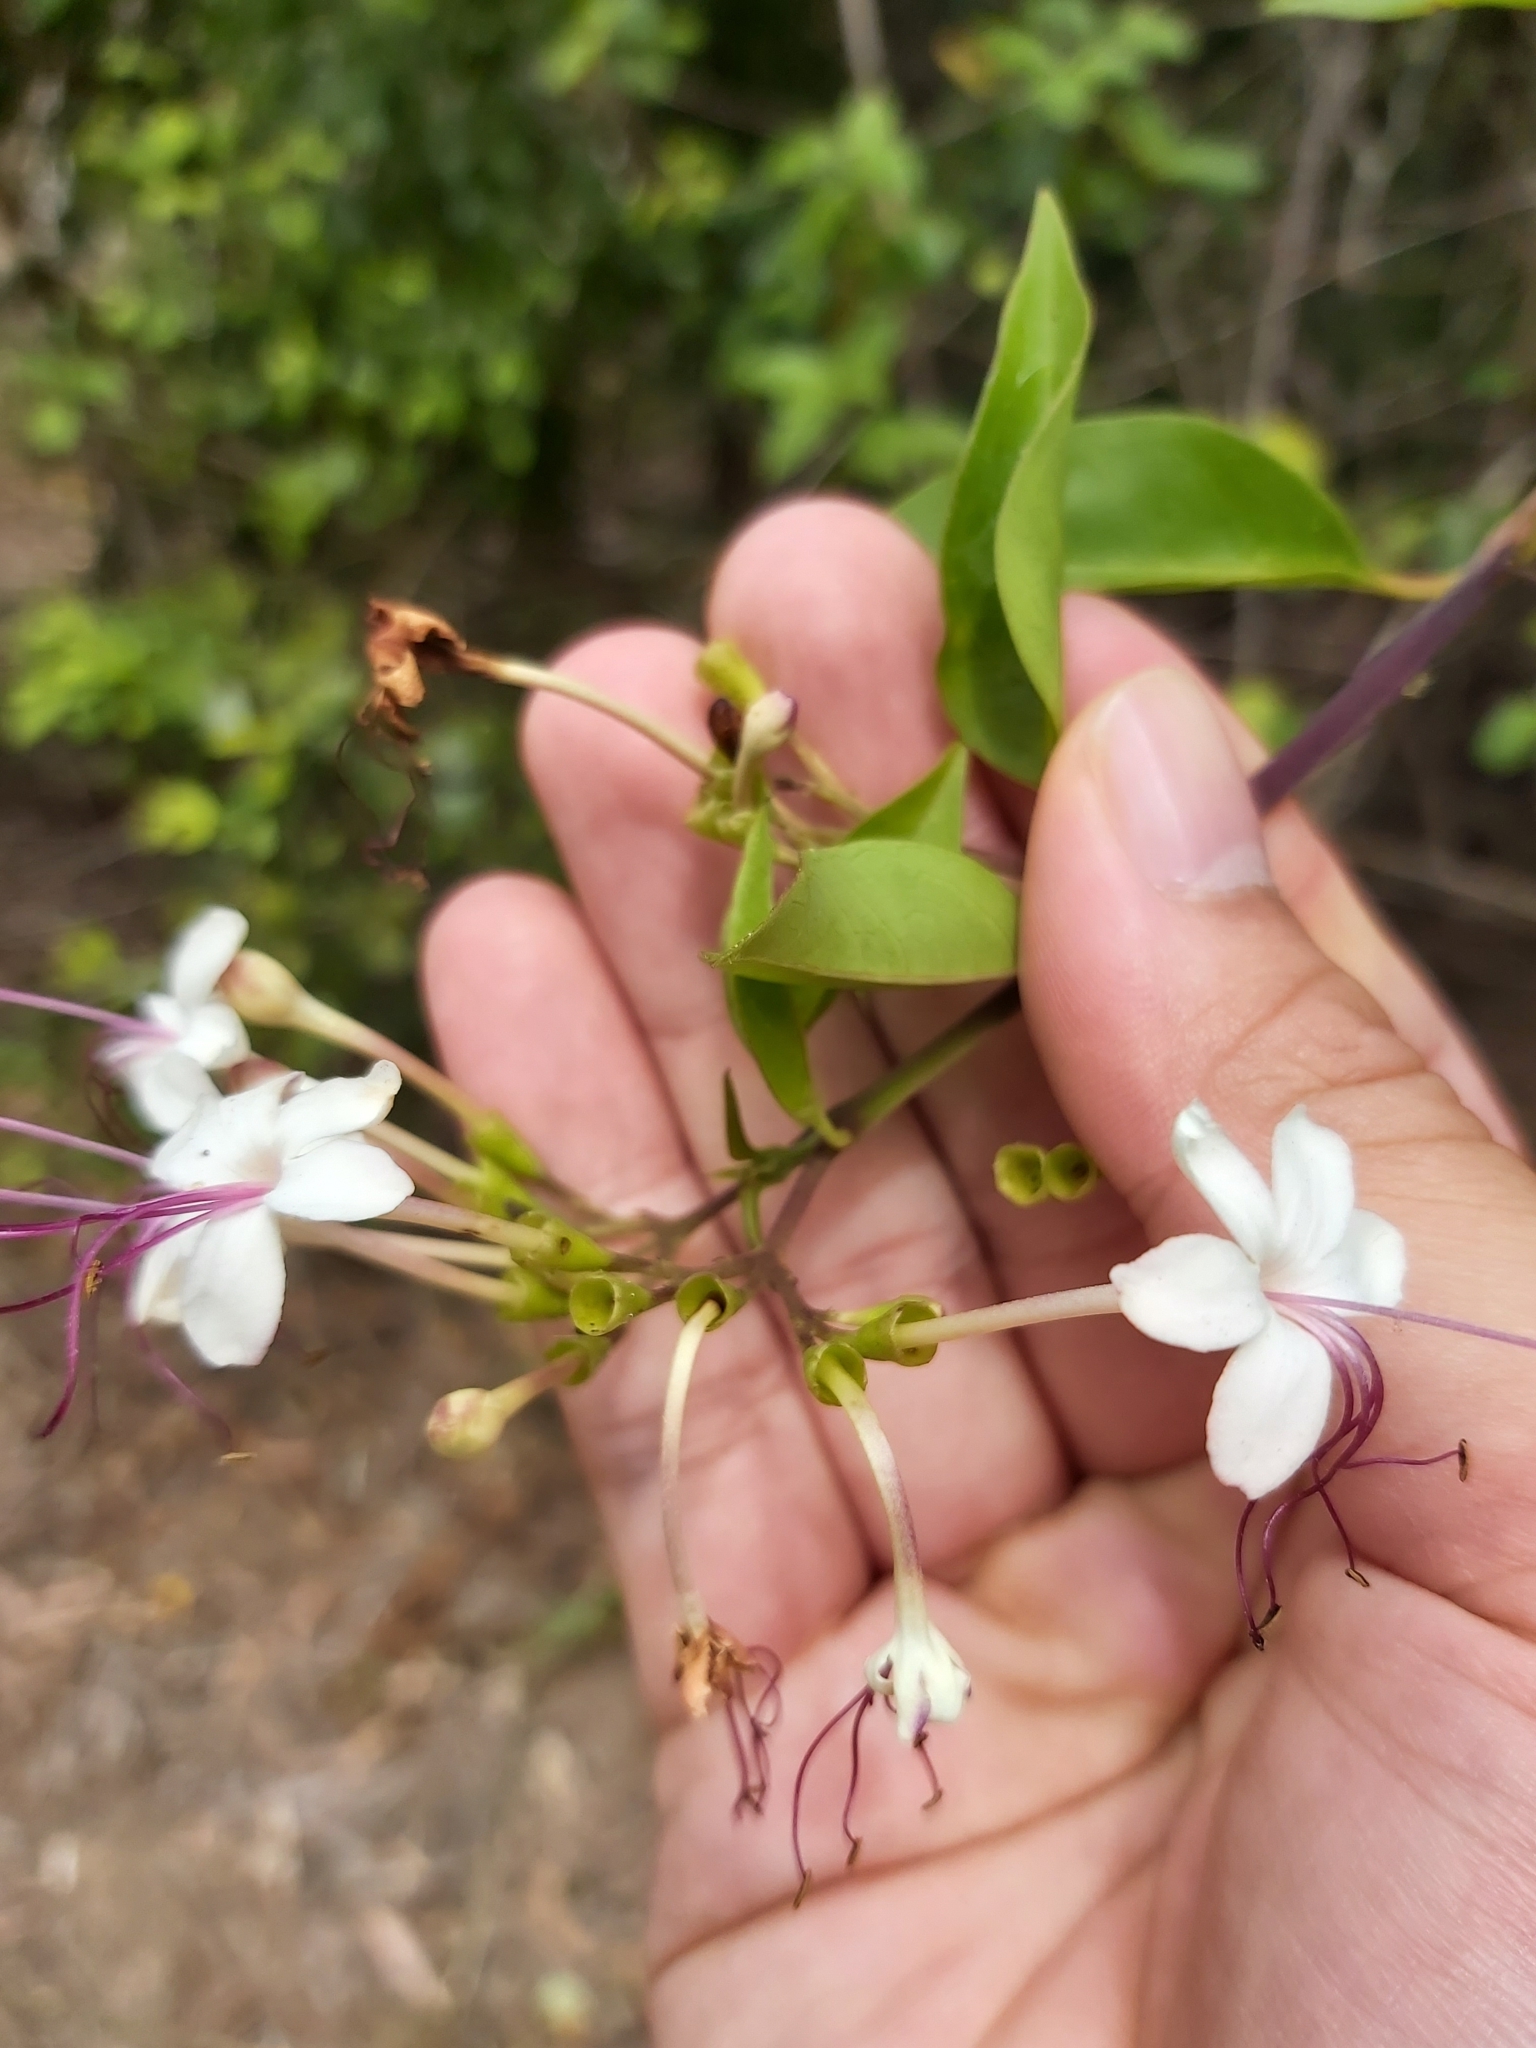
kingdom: Plantae
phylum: Tracheophyta
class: Magnoliopsida
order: Lamiales
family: Lamiaceae
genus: Volkameria
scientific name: Volkameria inermis
